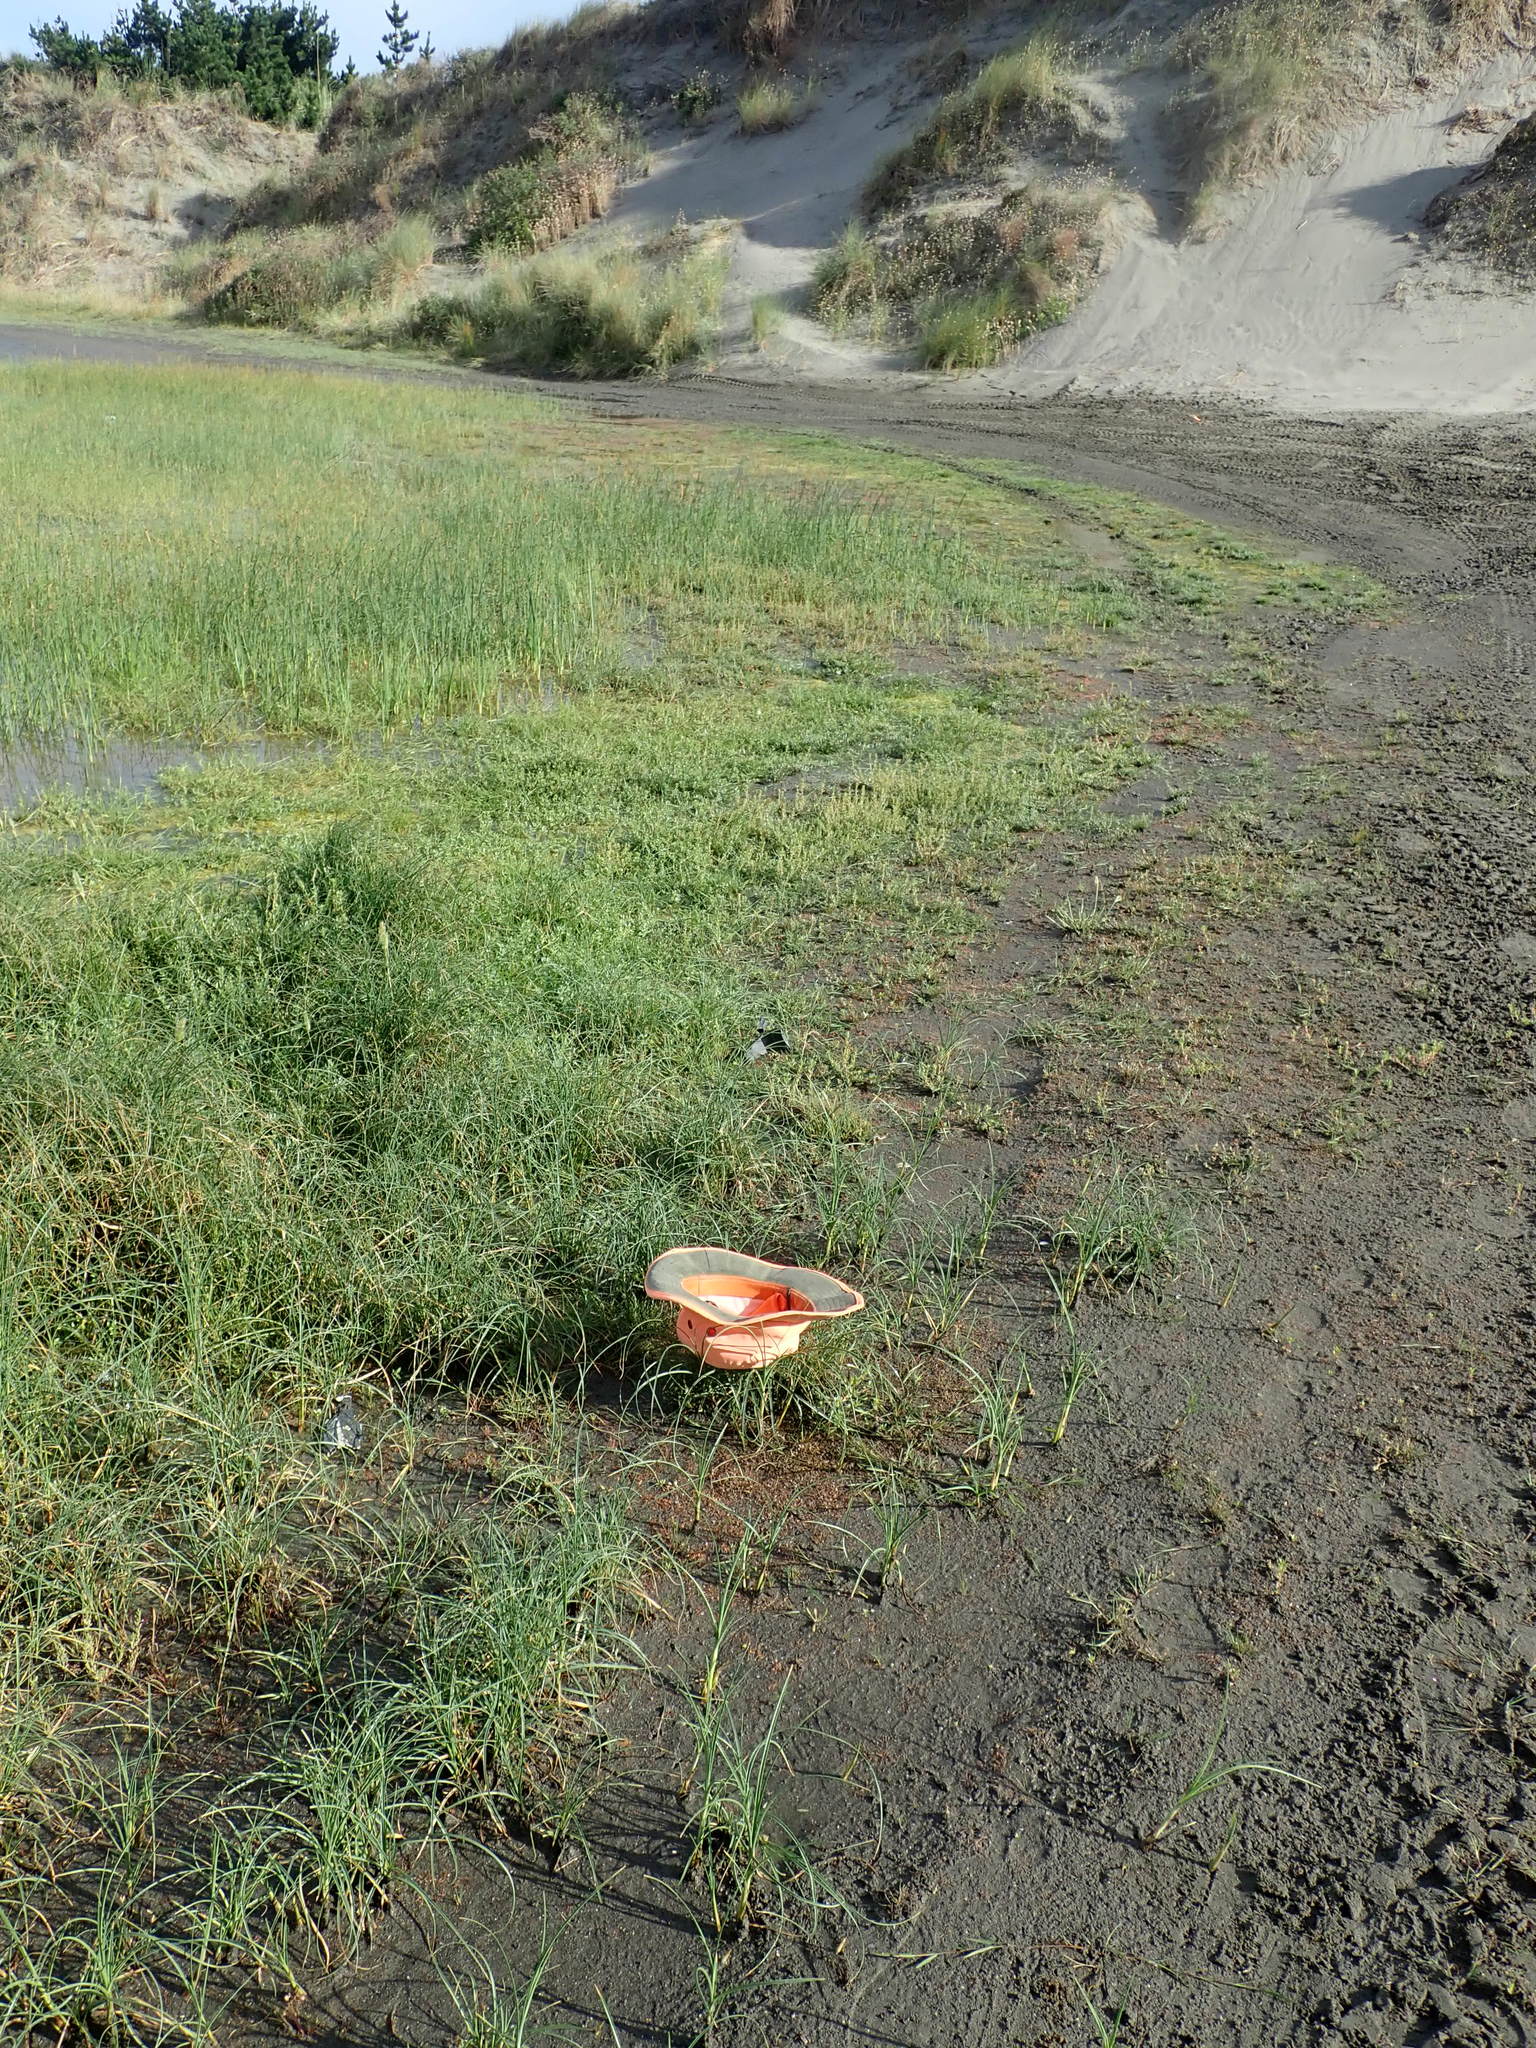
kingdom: Plantae
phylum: Tracheophyta
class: Magnoliopsida
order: Lamiales
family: Scrophulariaceae
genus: Limosella
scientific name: Limosella australis
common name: Welsh mudwort
